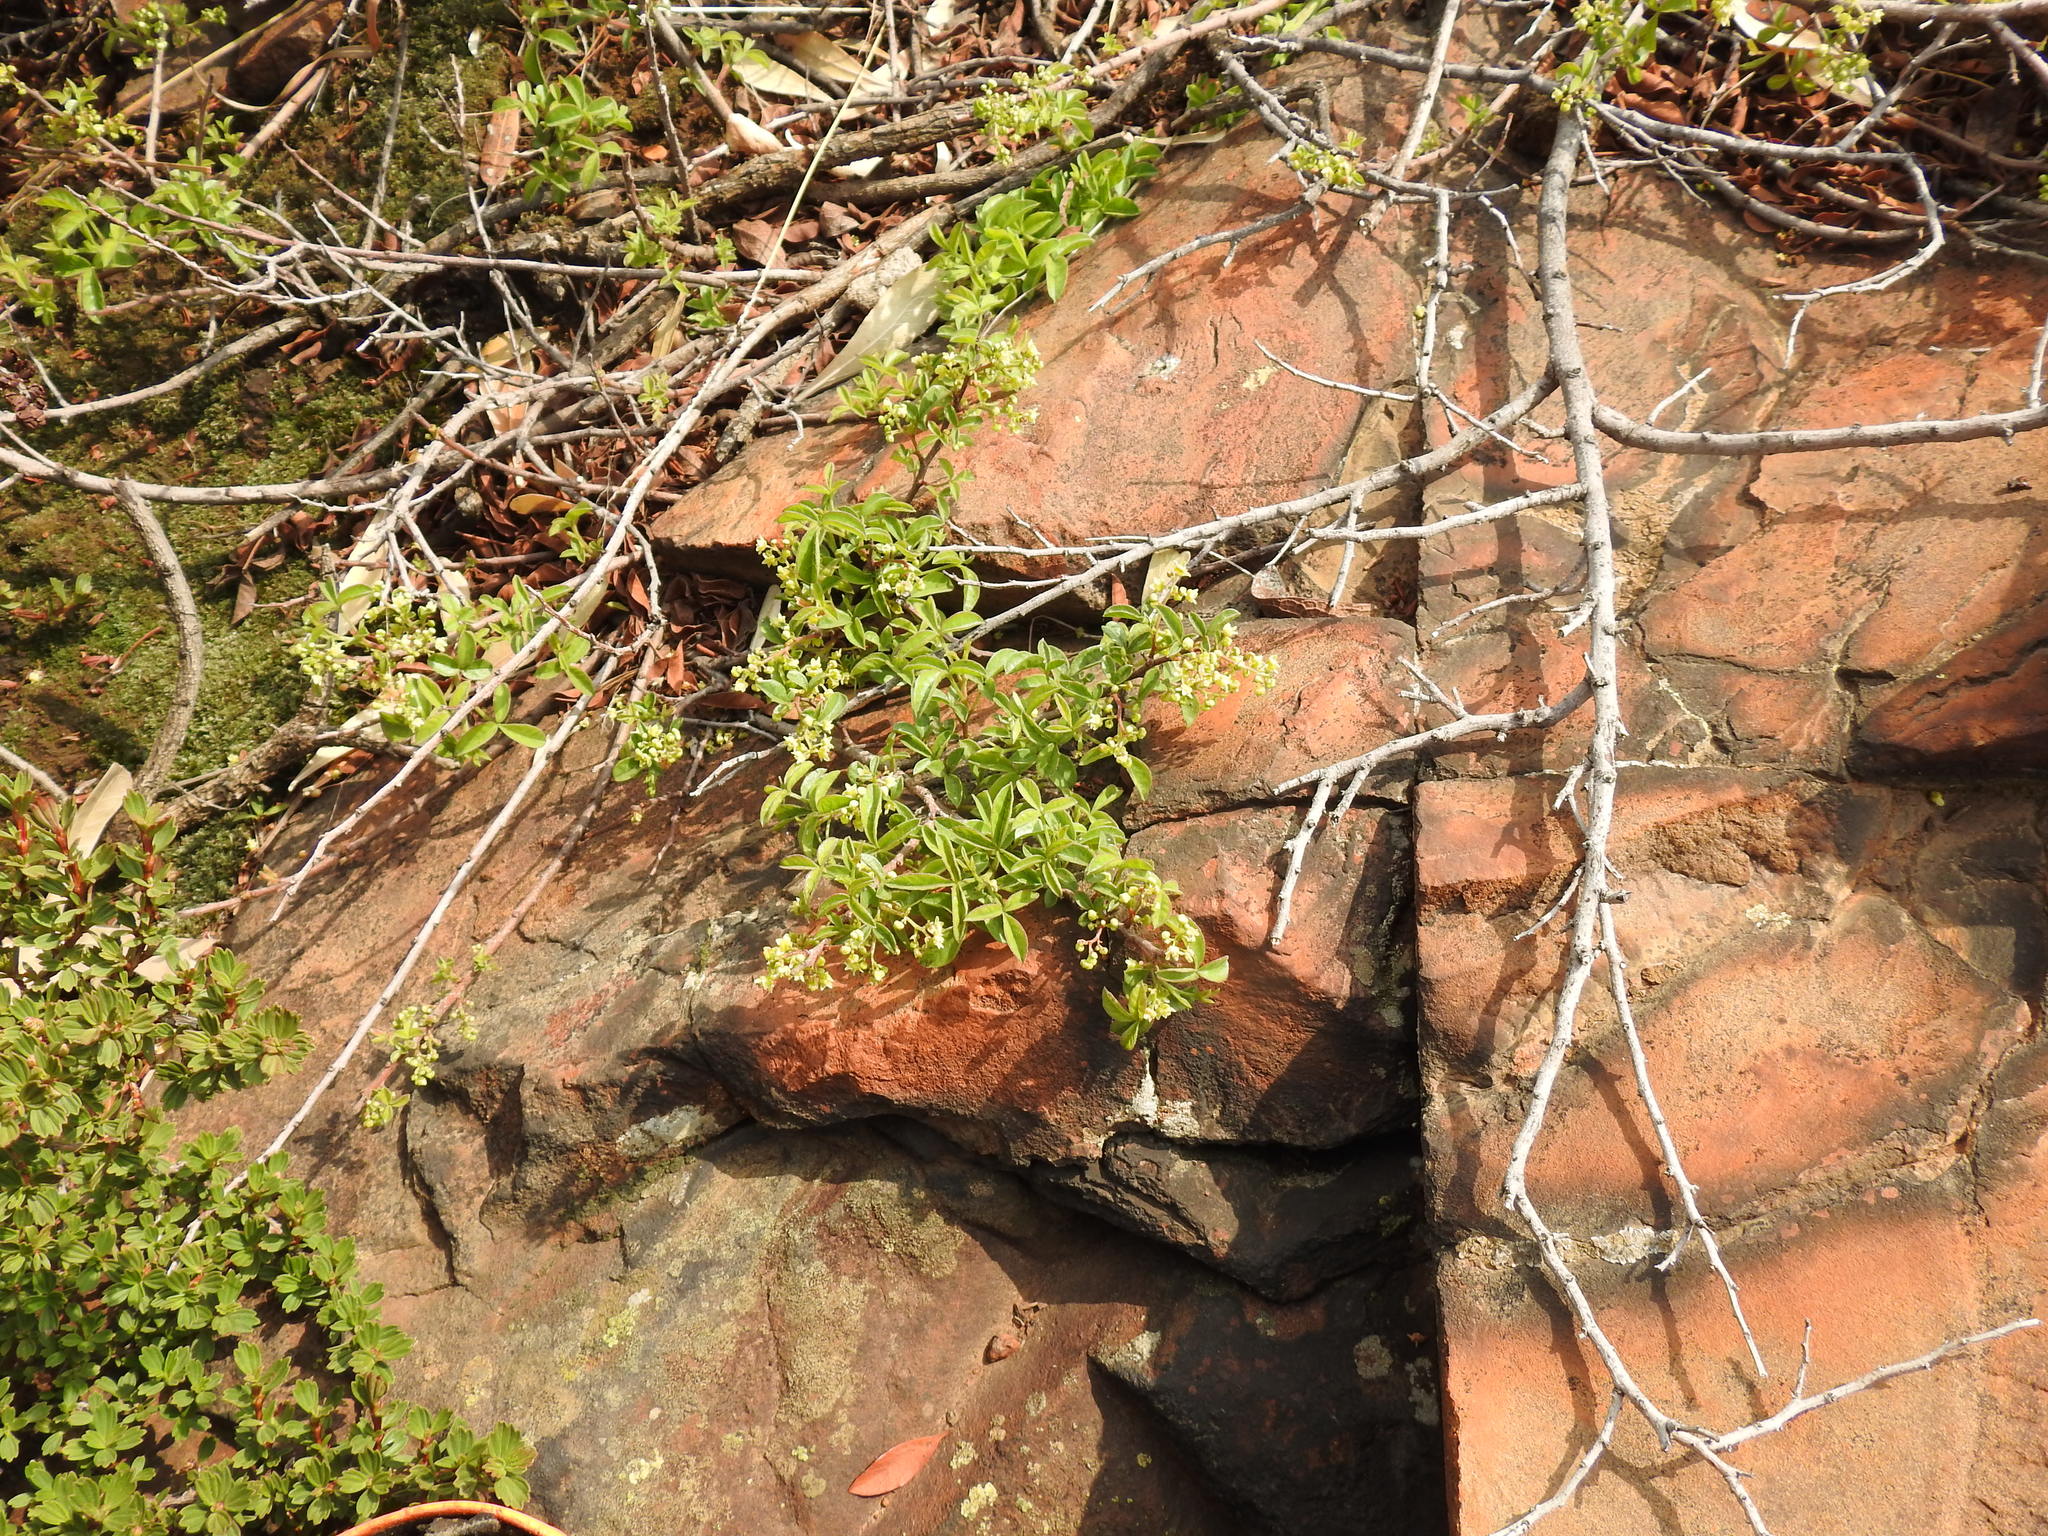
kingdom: Plantae
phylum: Tracheophyta
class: Magnoliopsida
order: Sapindales
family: Anacardiaceae
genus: Searsia
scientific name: Searsia rigida
